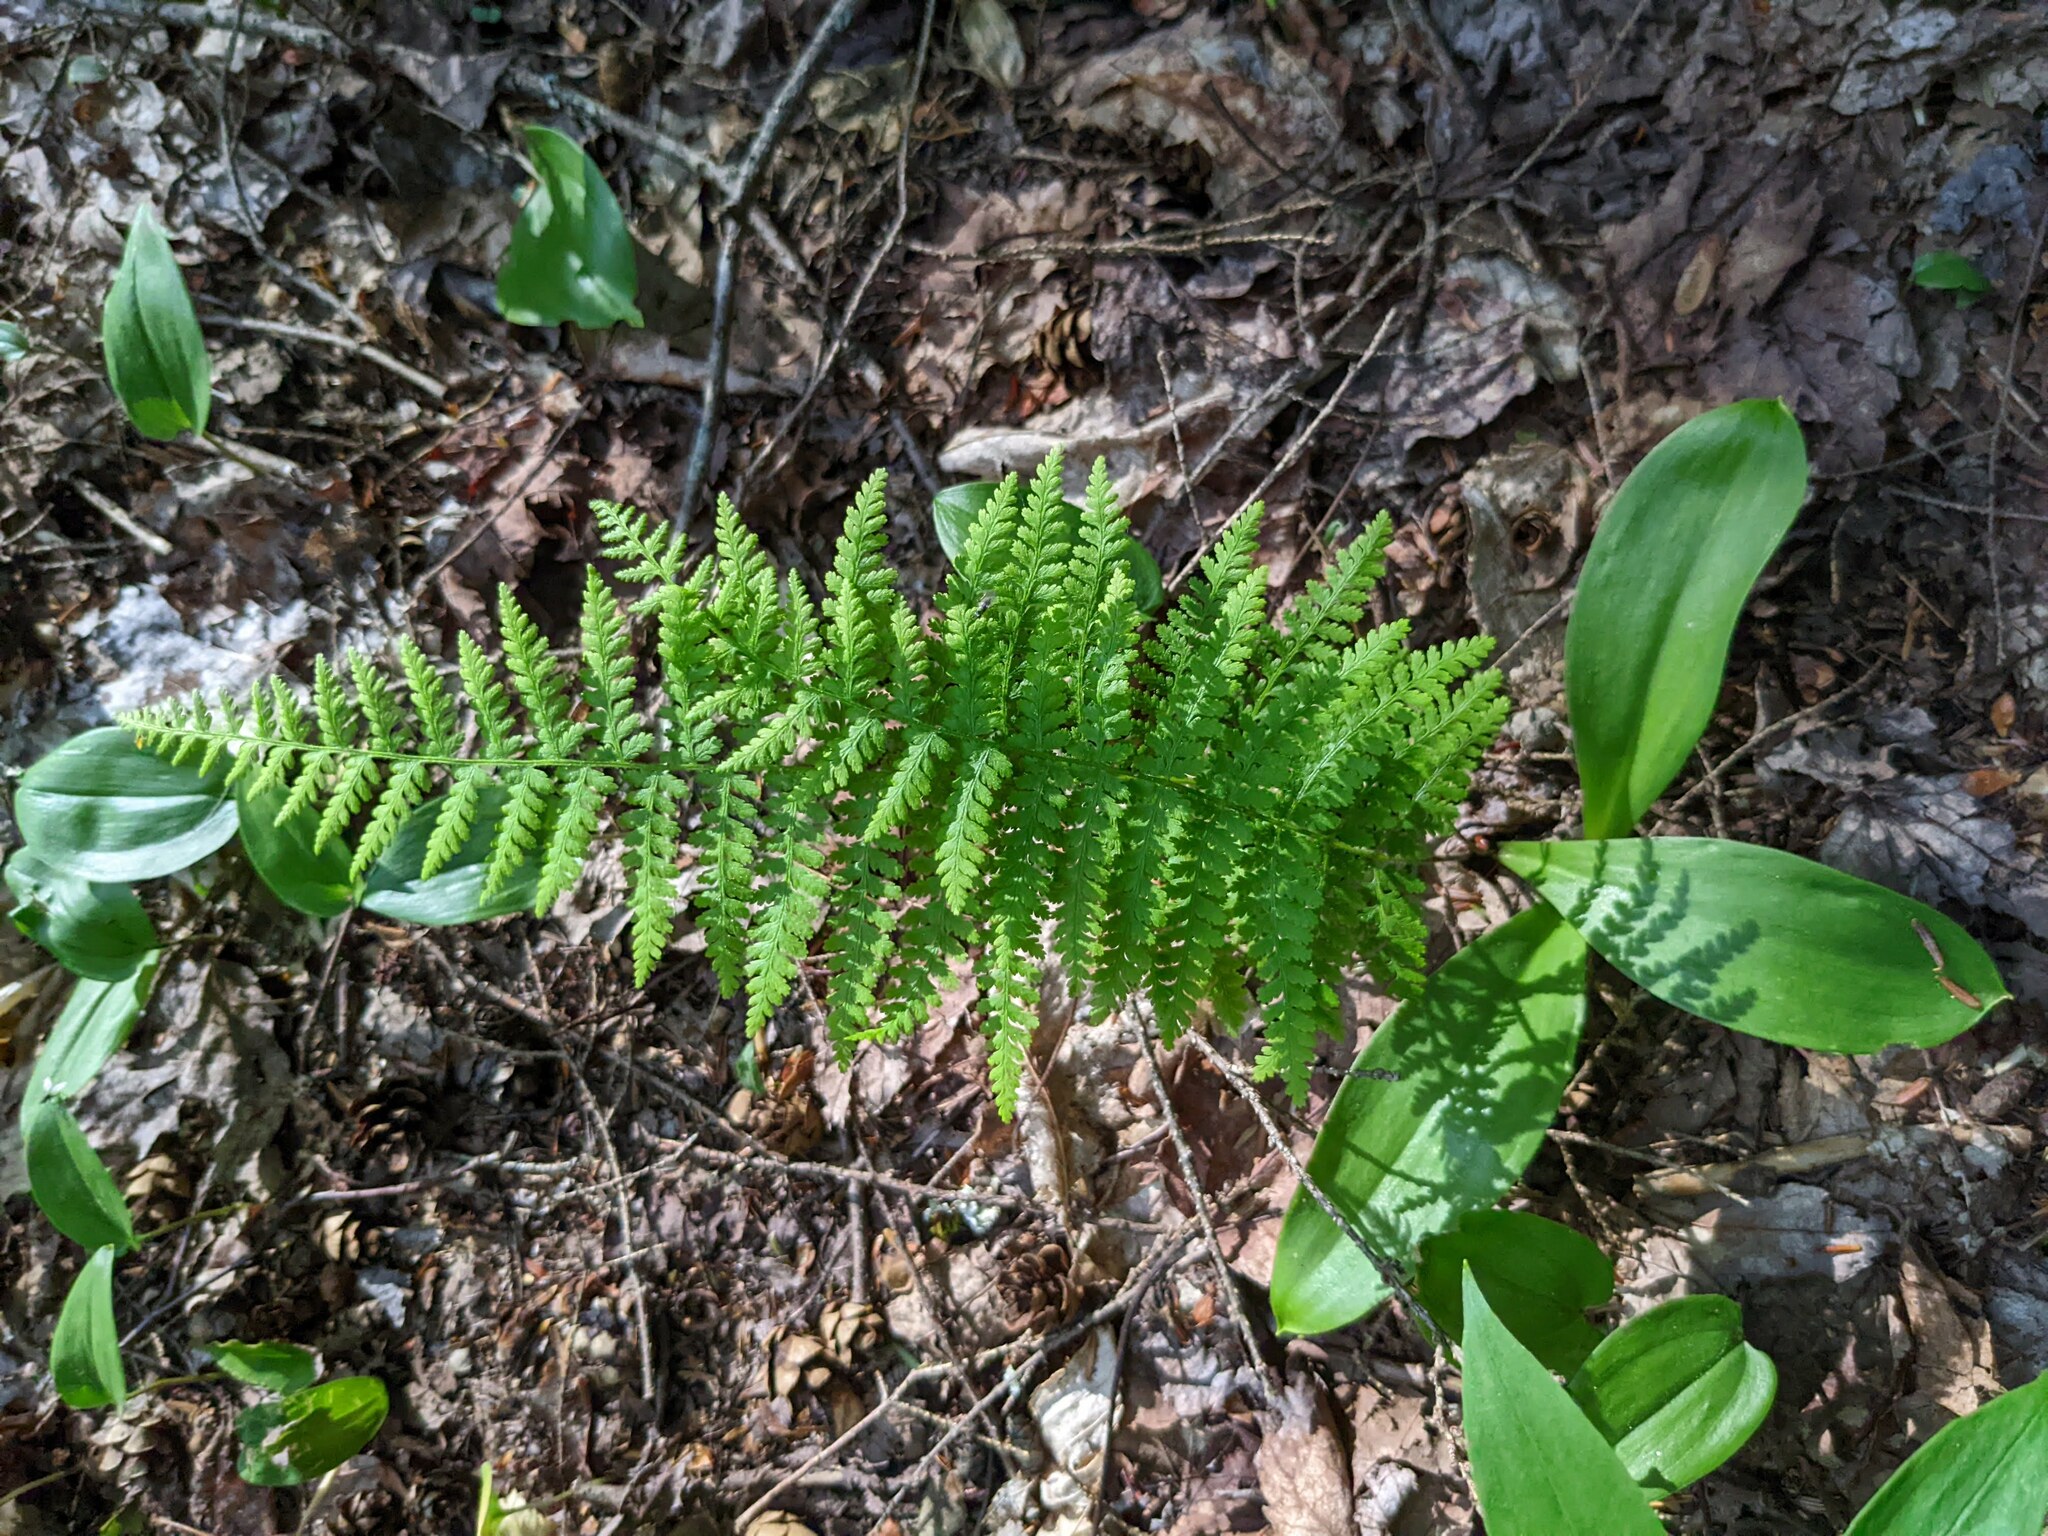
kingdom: Plantae
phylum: Tracheophyta
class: Polypodiopsida
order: Polypodiales
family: Dennstaedtiaceae
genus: Sitobolium
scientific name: Sitobolium punctilobum
